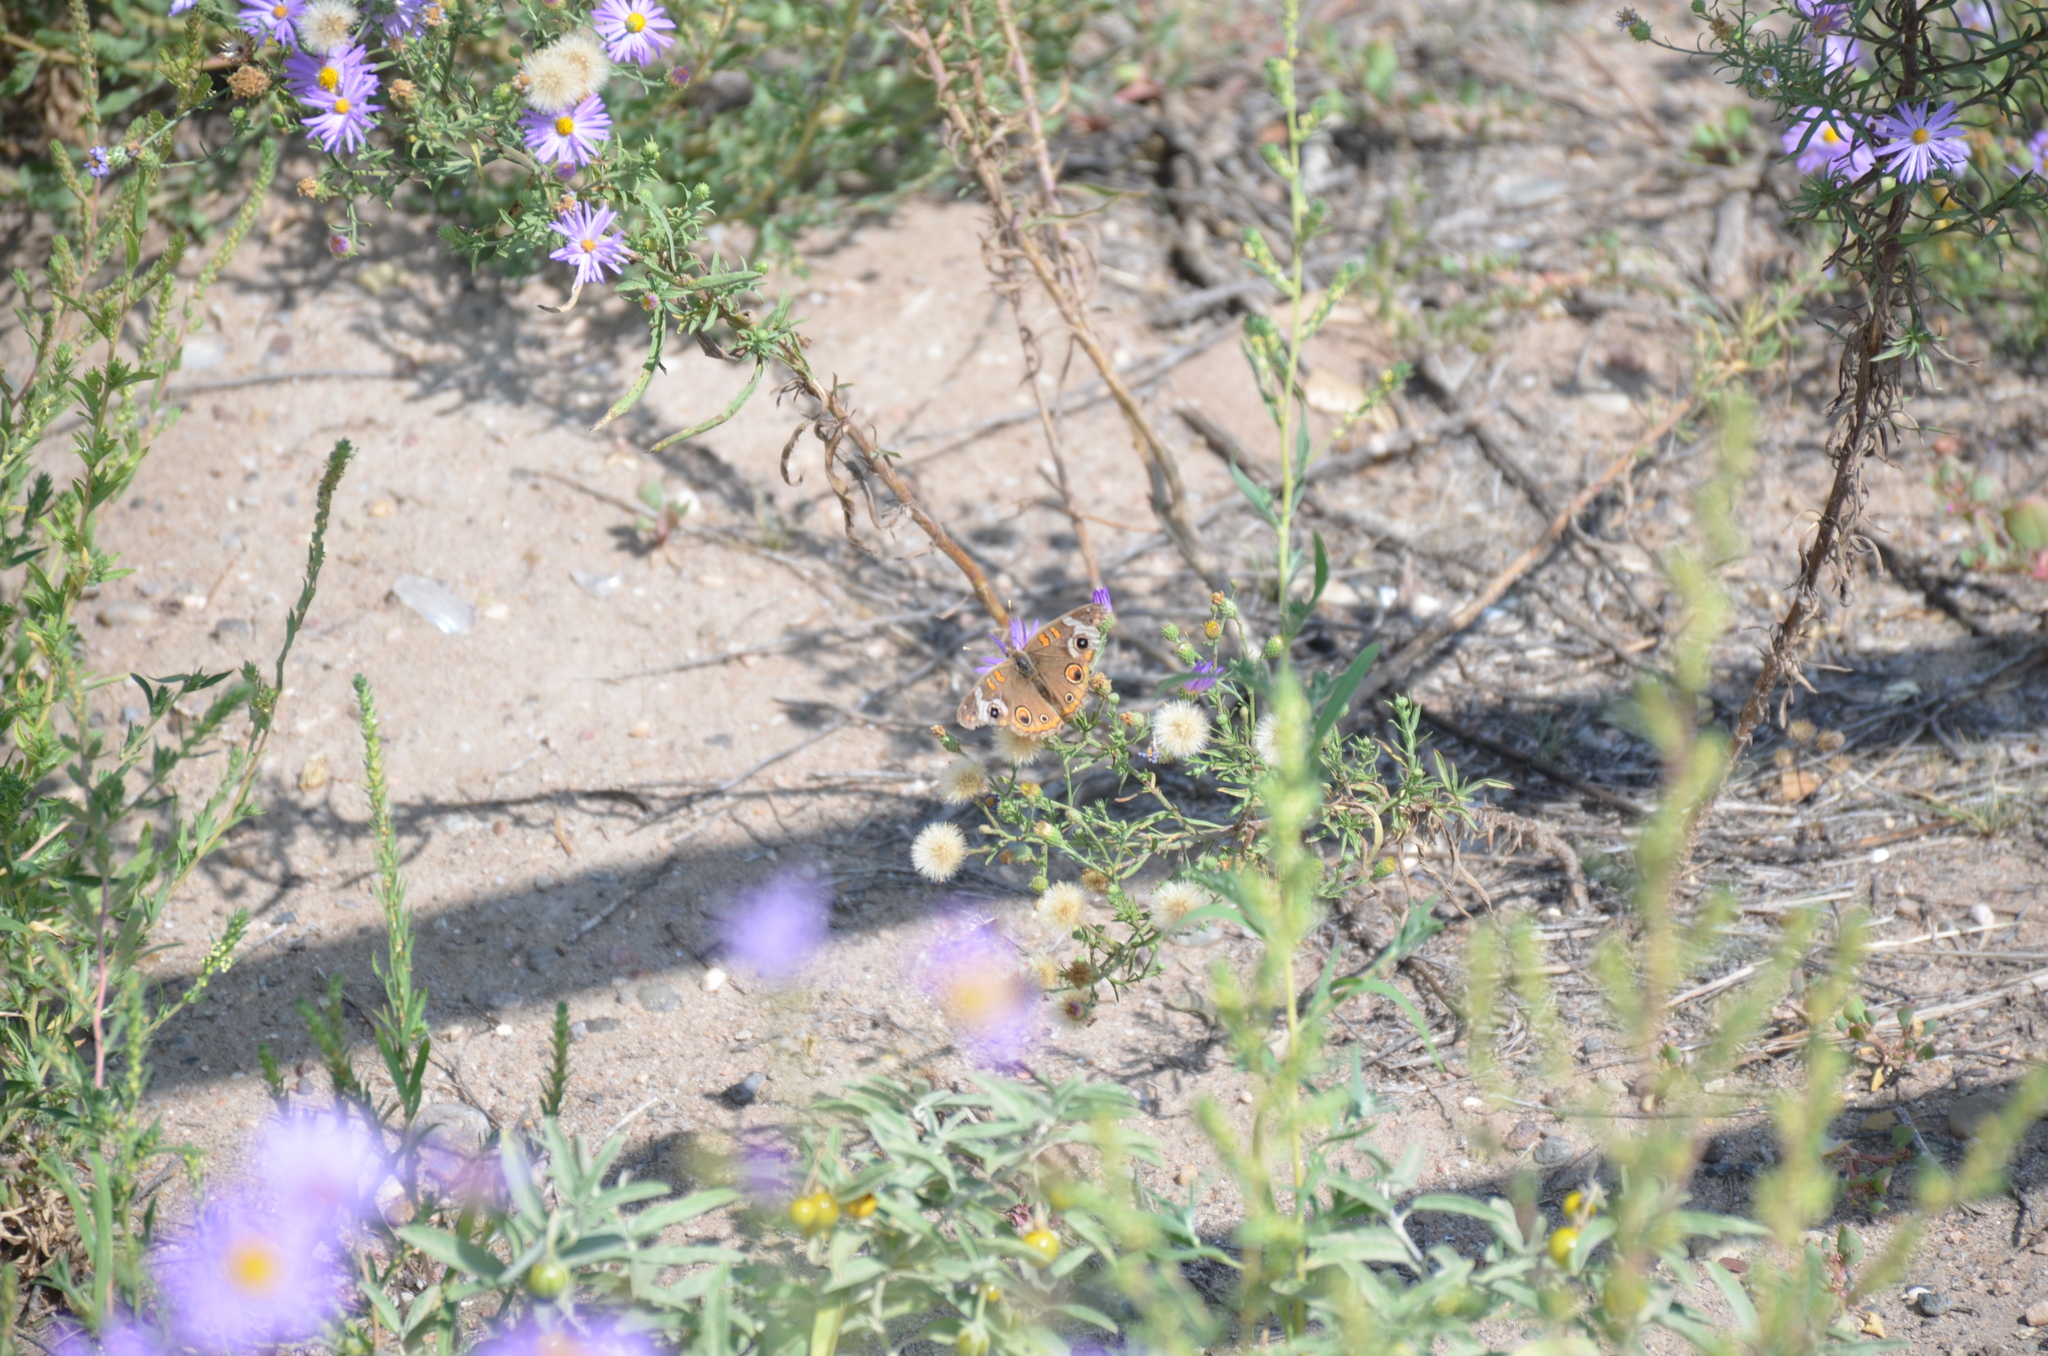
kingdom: Animalia
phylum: Arthropoda
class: Insecta
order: Lepidoptera
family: Nymphalidae
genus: Junonia
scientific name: Junonia grisea
